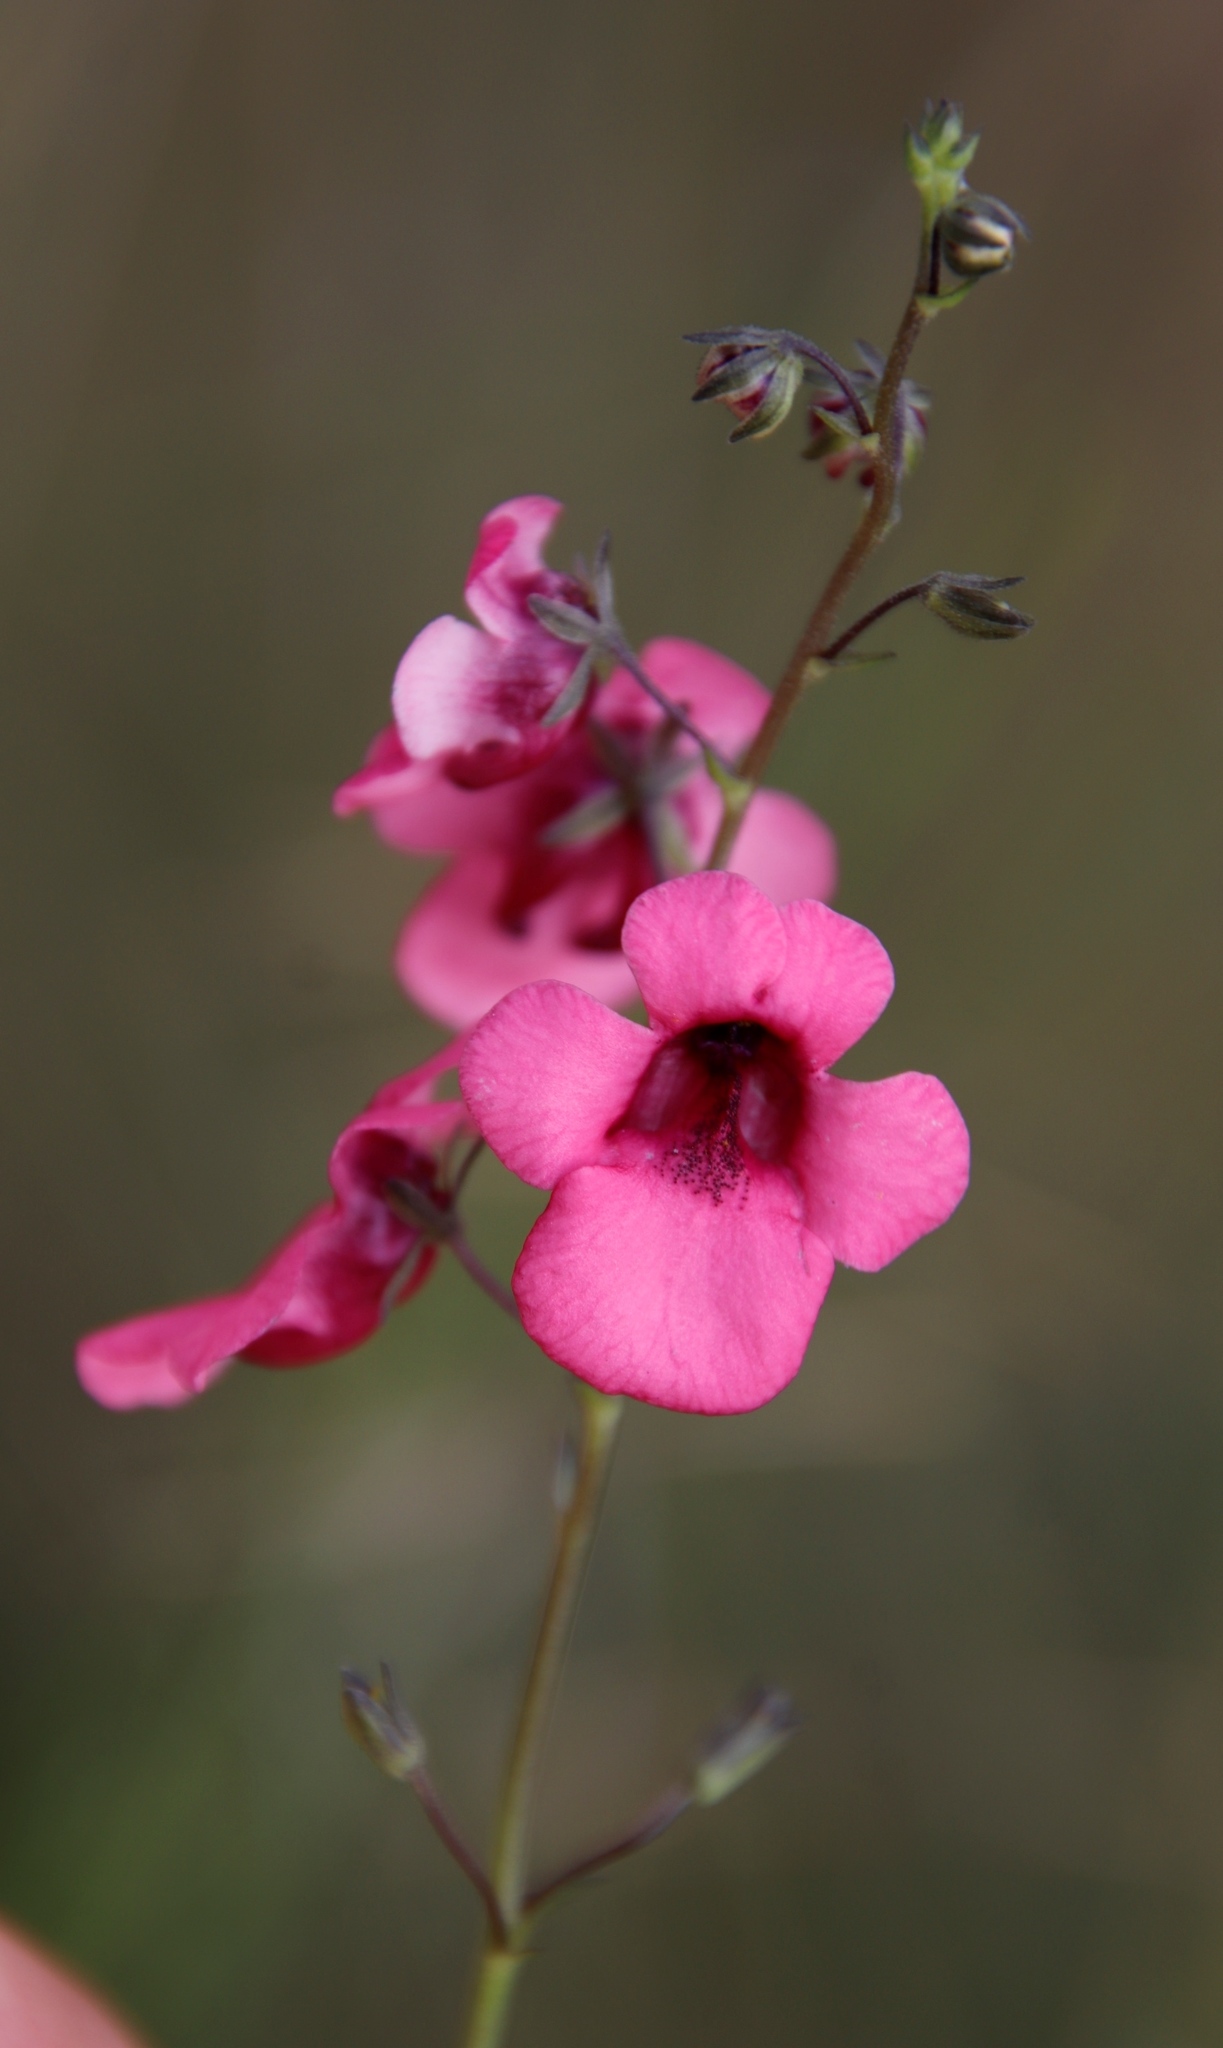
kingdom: Plantae
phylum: Tracheophyta
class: Magnoliopsida
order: Lamiales
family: Scrophulariaceae
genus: Diascia
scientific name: Diascia integerrima
